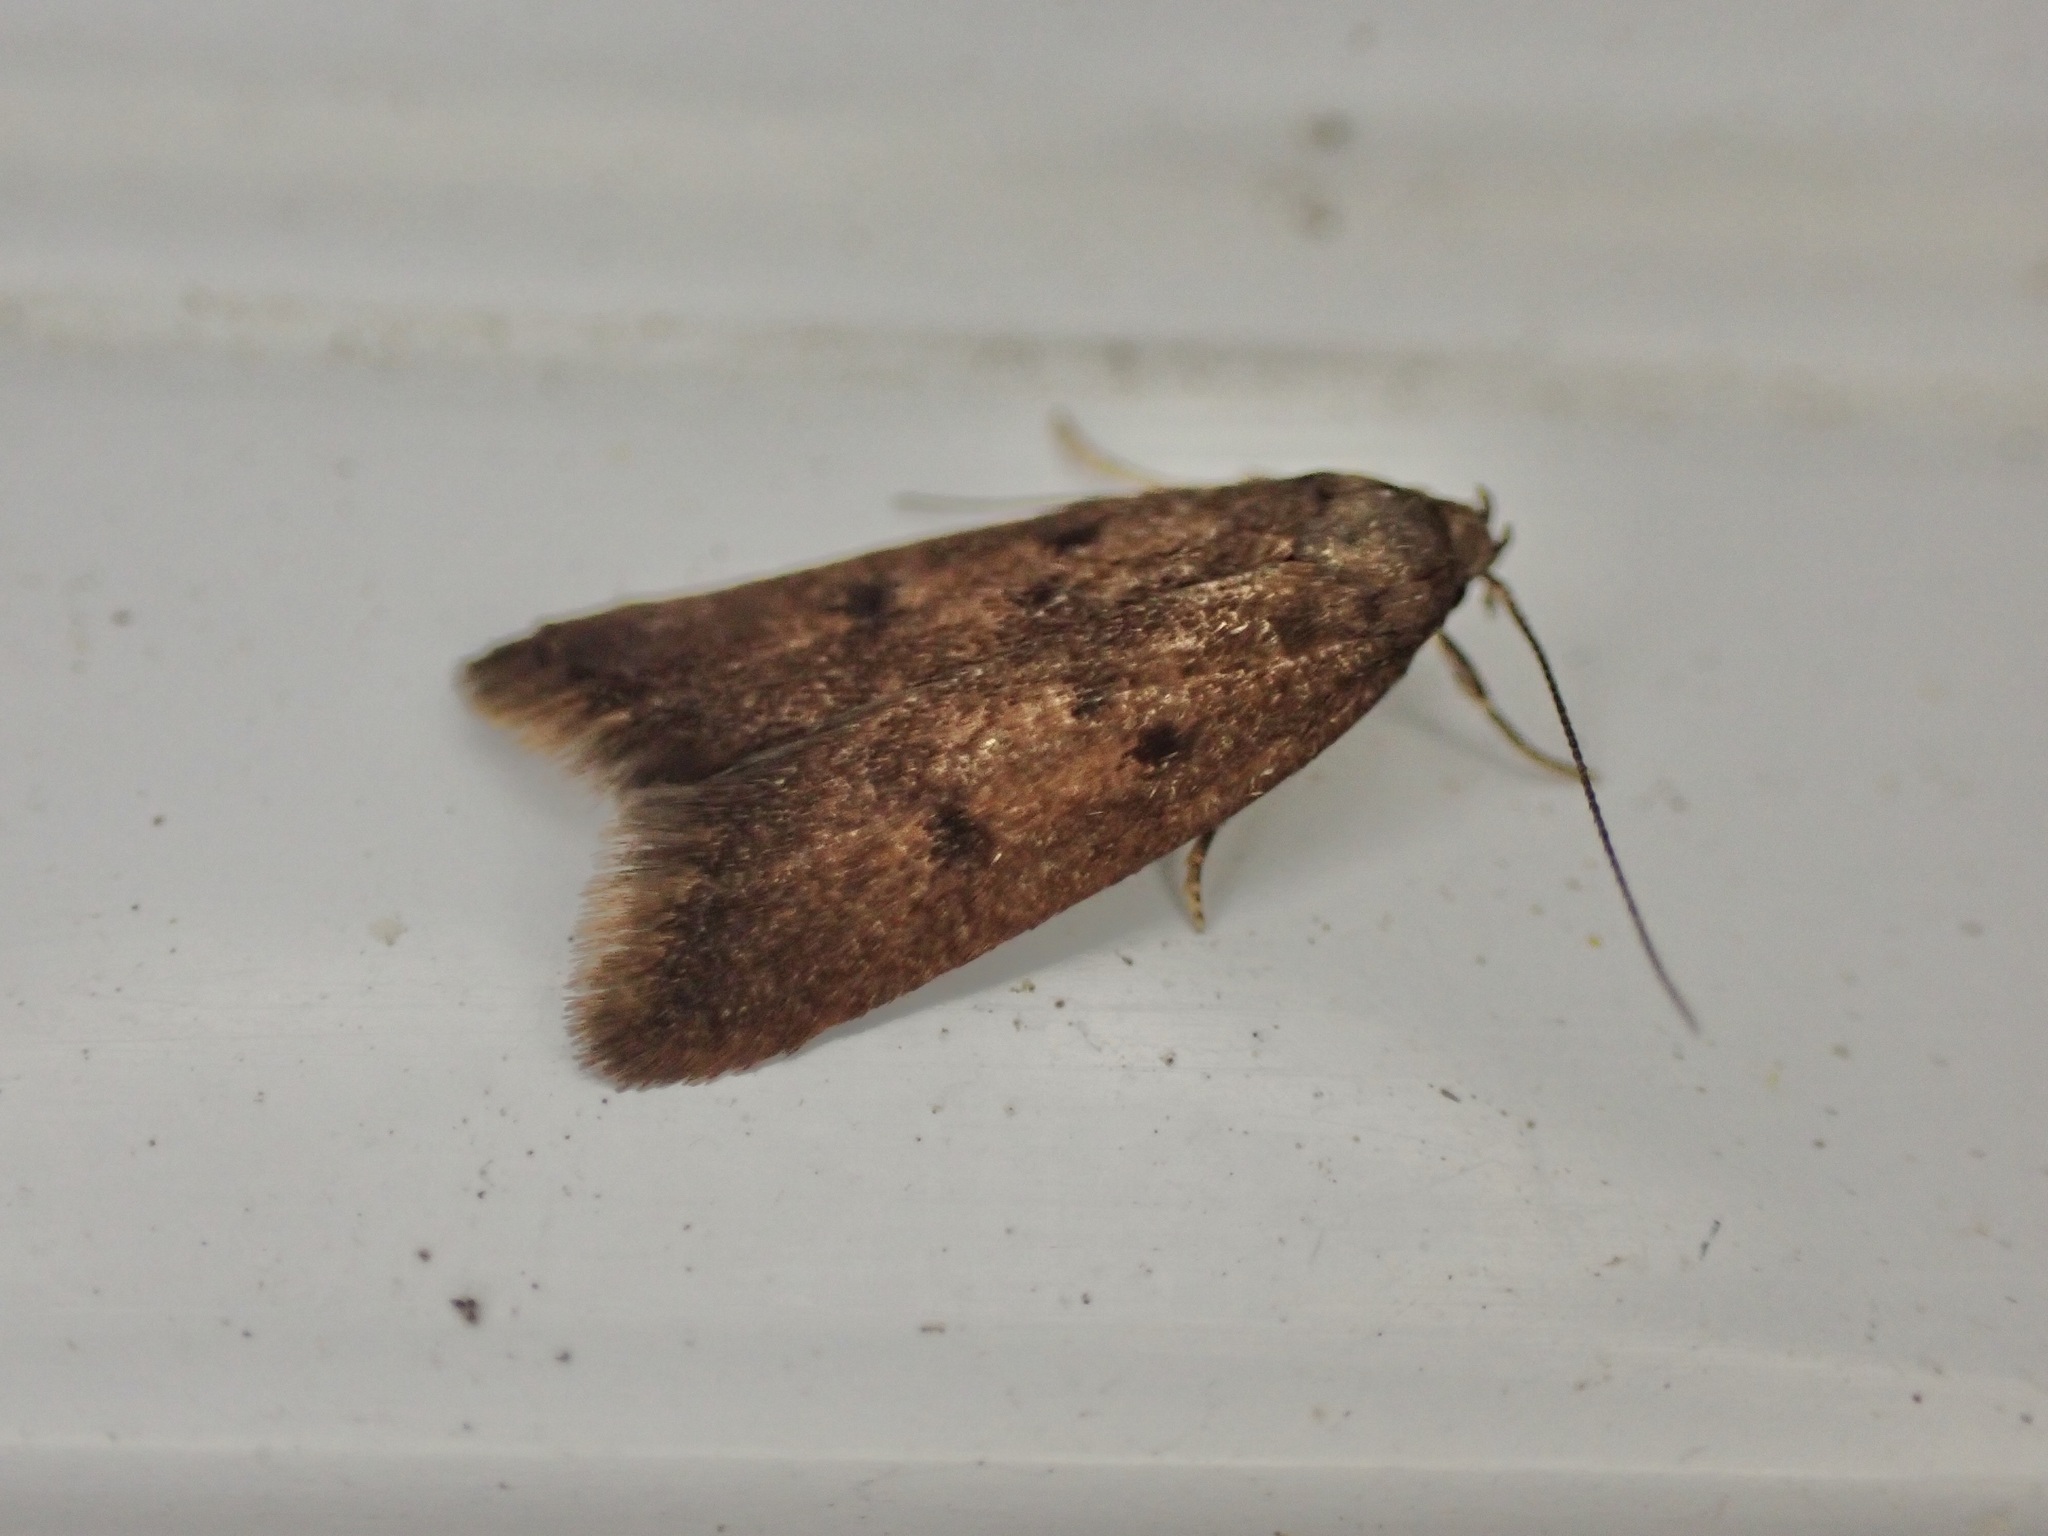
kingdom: Animalia
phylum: Arthropoda
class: Insecta
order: Lepidoptera
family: Oecophoridae
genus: Tachystola
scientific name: Tachystola acroxantha
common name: Ruddy streak
